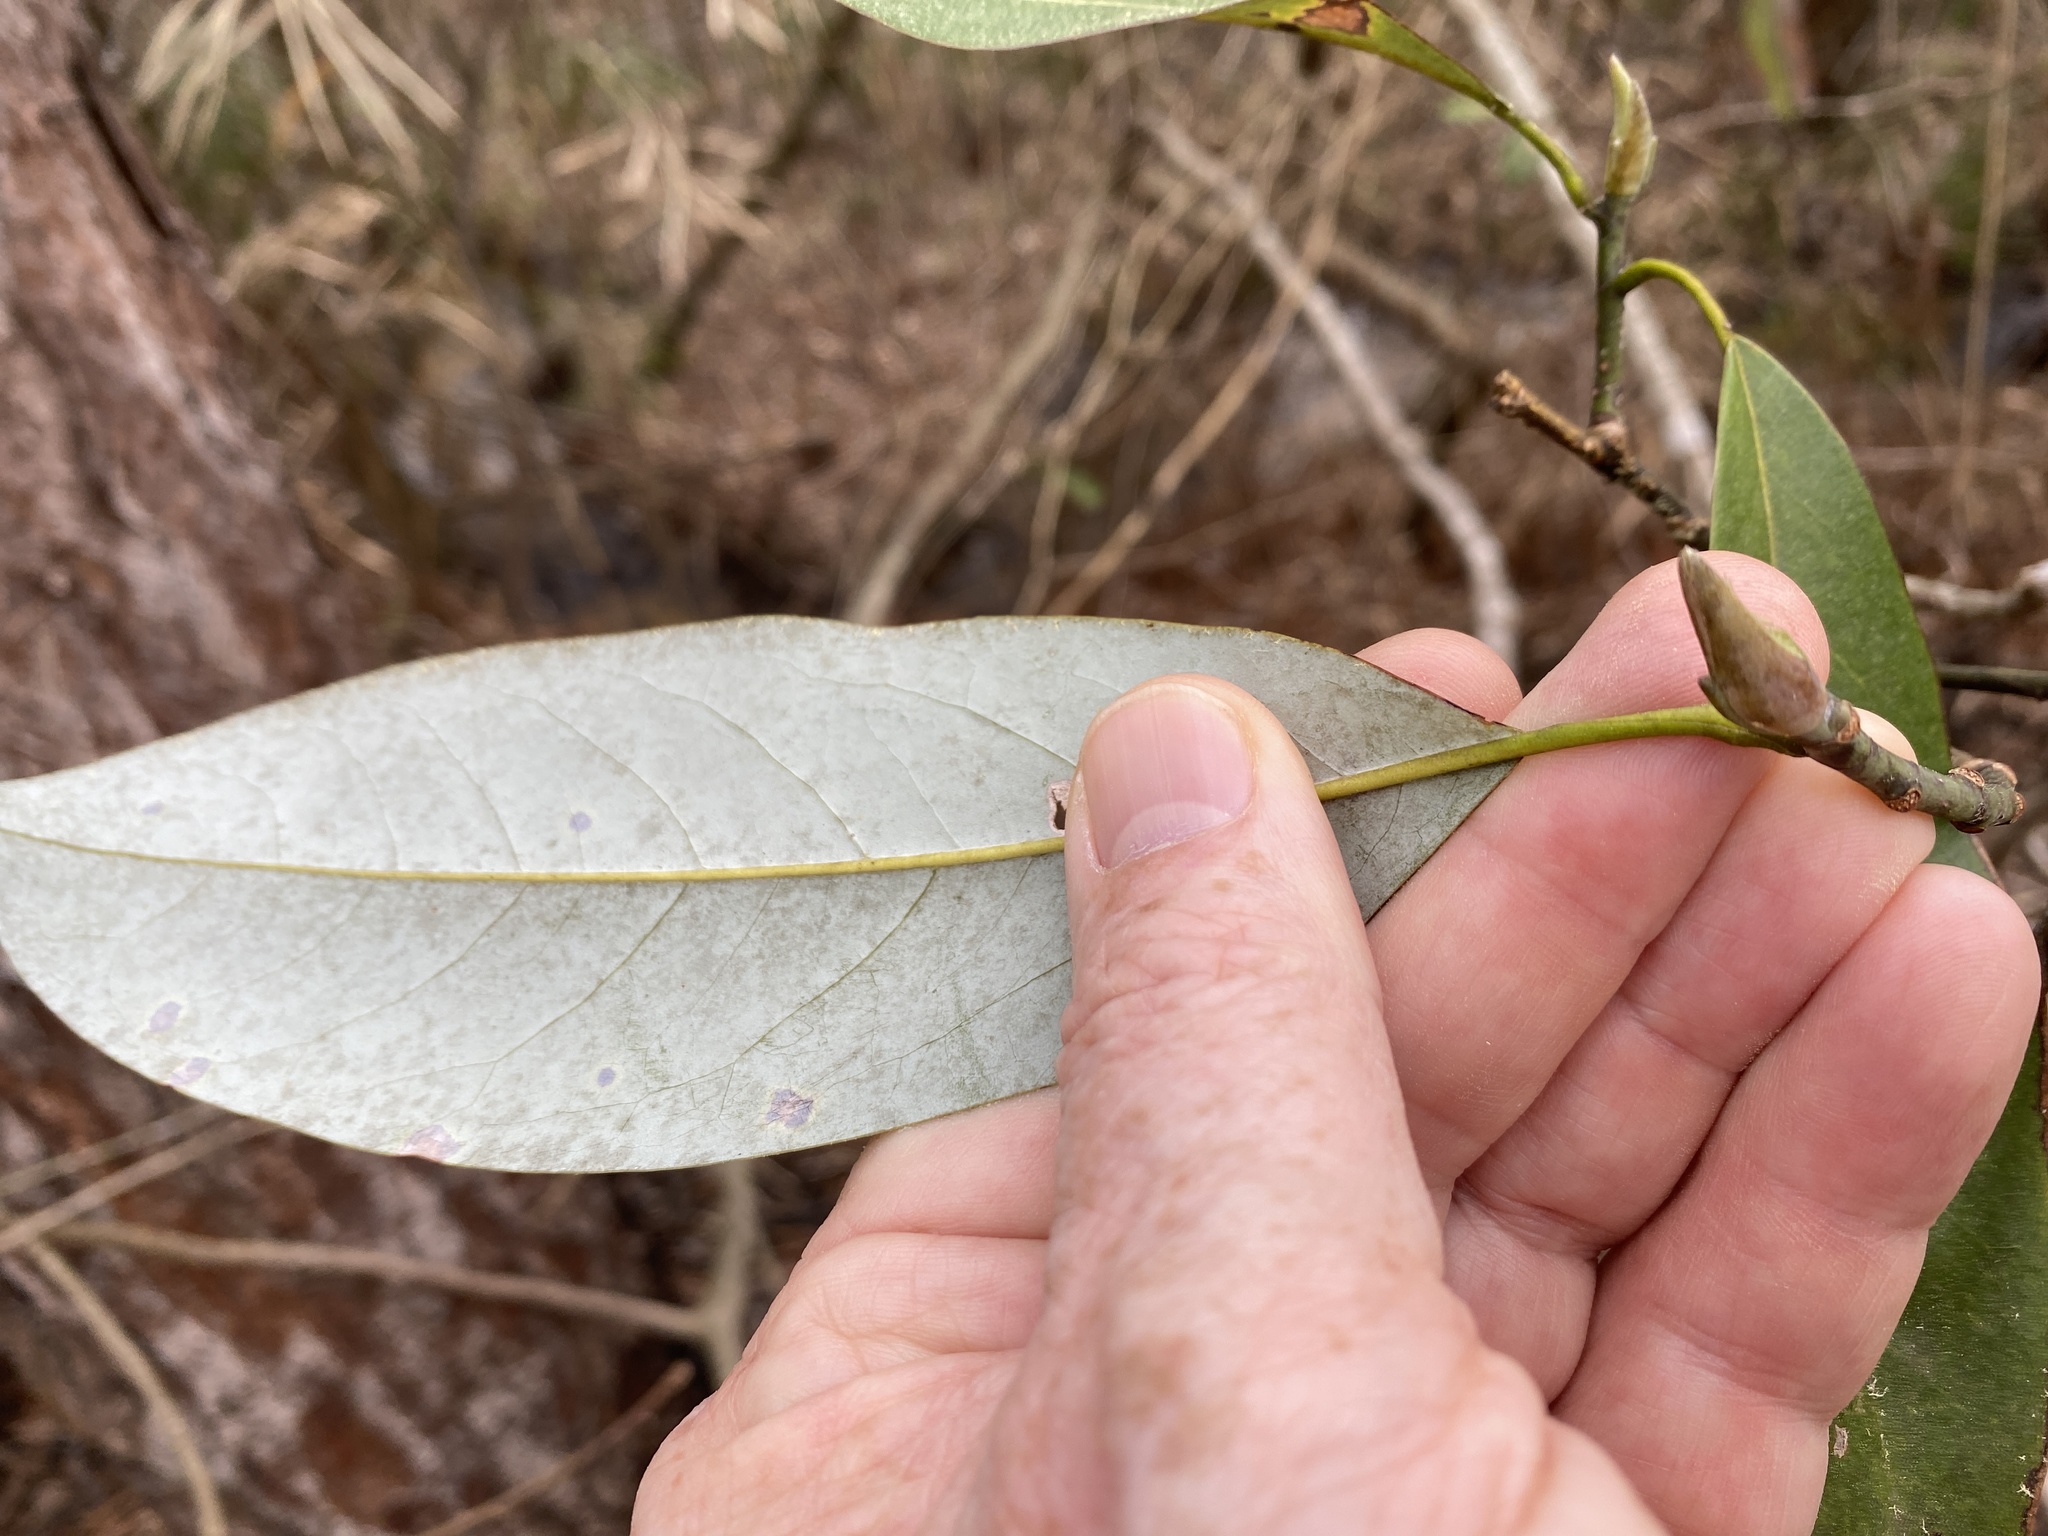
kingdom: Plantae
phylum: Tracheophyta
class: Magnoliopsida
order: Magnoliales
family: Magnoliaceae
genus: Magnolia
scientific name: Magnolia virginiana
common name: Swamp bay
